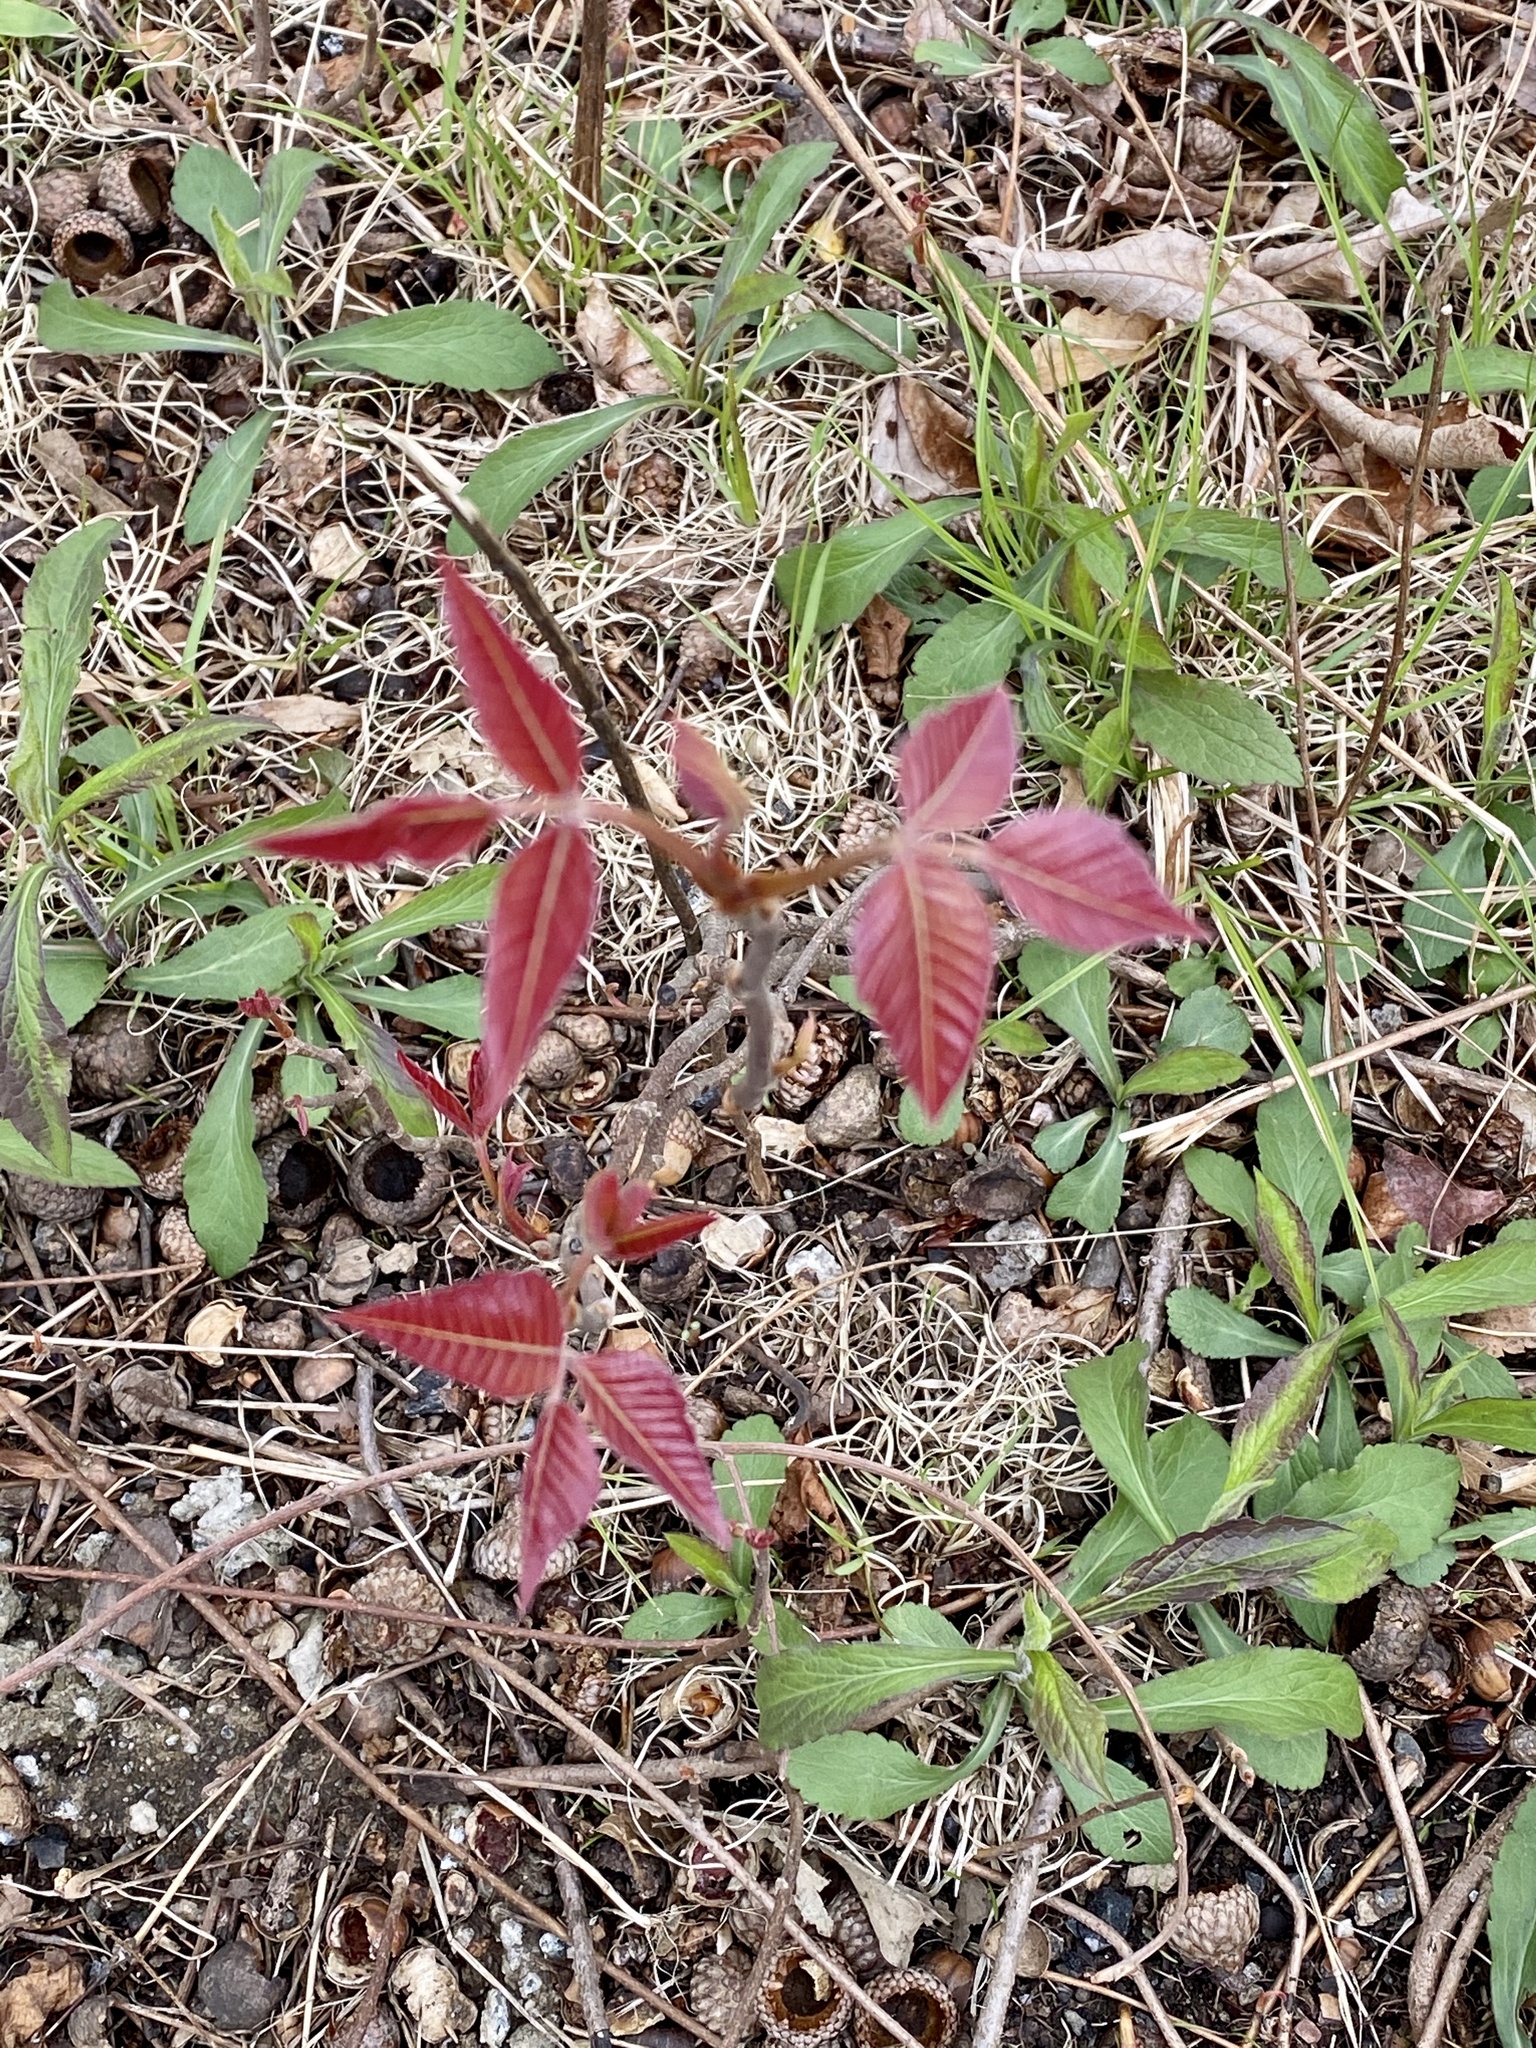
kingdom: Plantae
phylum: Tracheophyta
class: Magnoliopsida
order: Sapindales
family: Anacardiaceae
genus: Toxicodendron
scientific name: Toxicodendron radicans
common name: Poison ivy
